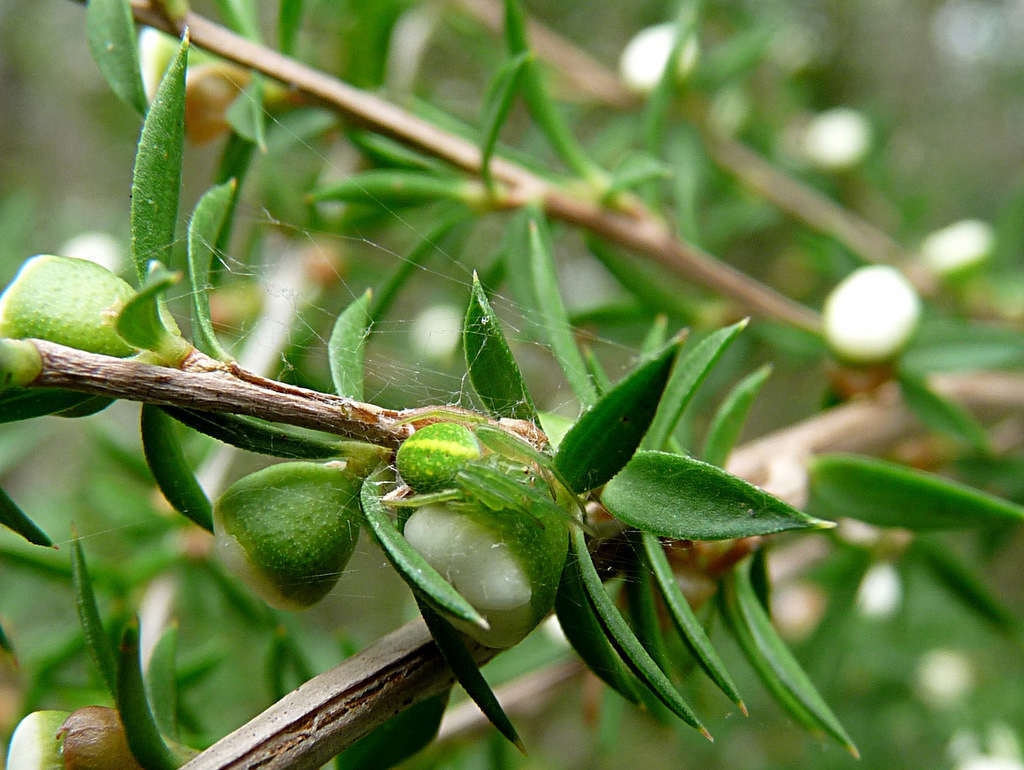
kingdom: Animalia
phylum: Arthropoda
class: Arachnida
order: Araneae
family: Araneidae
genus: Araneus
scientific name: Araneus psittacinus
